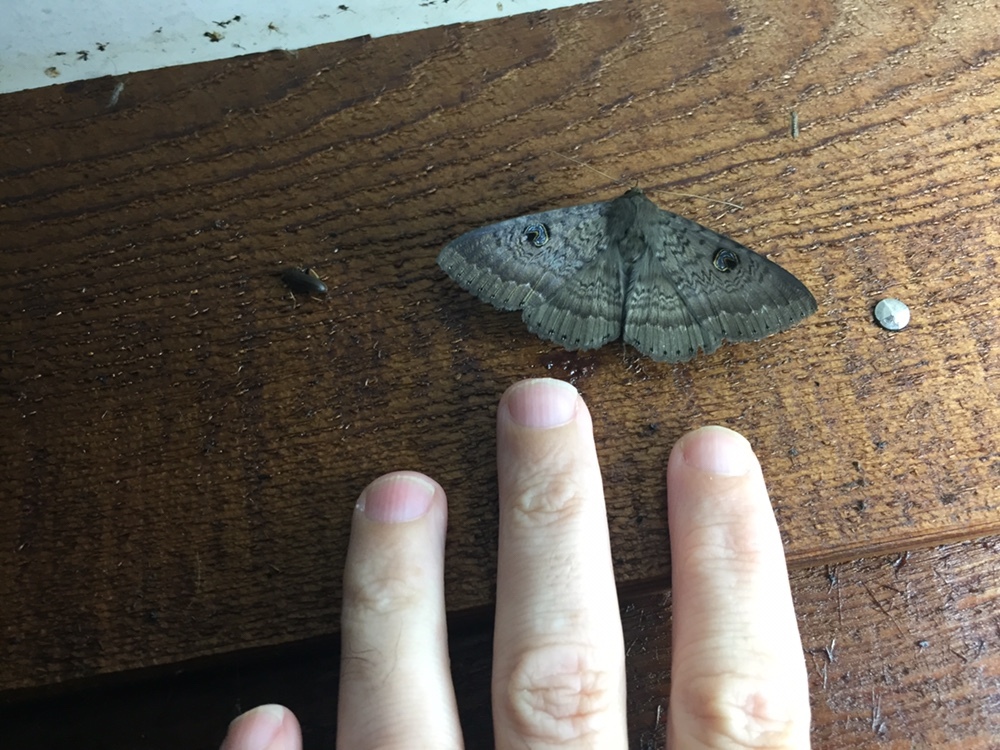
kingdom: Animalia
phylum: Arthropoda
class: Insecta
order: Lepidoptera
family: Erebidae
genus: Dasypodia
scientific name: Dasypodia cymatodes
